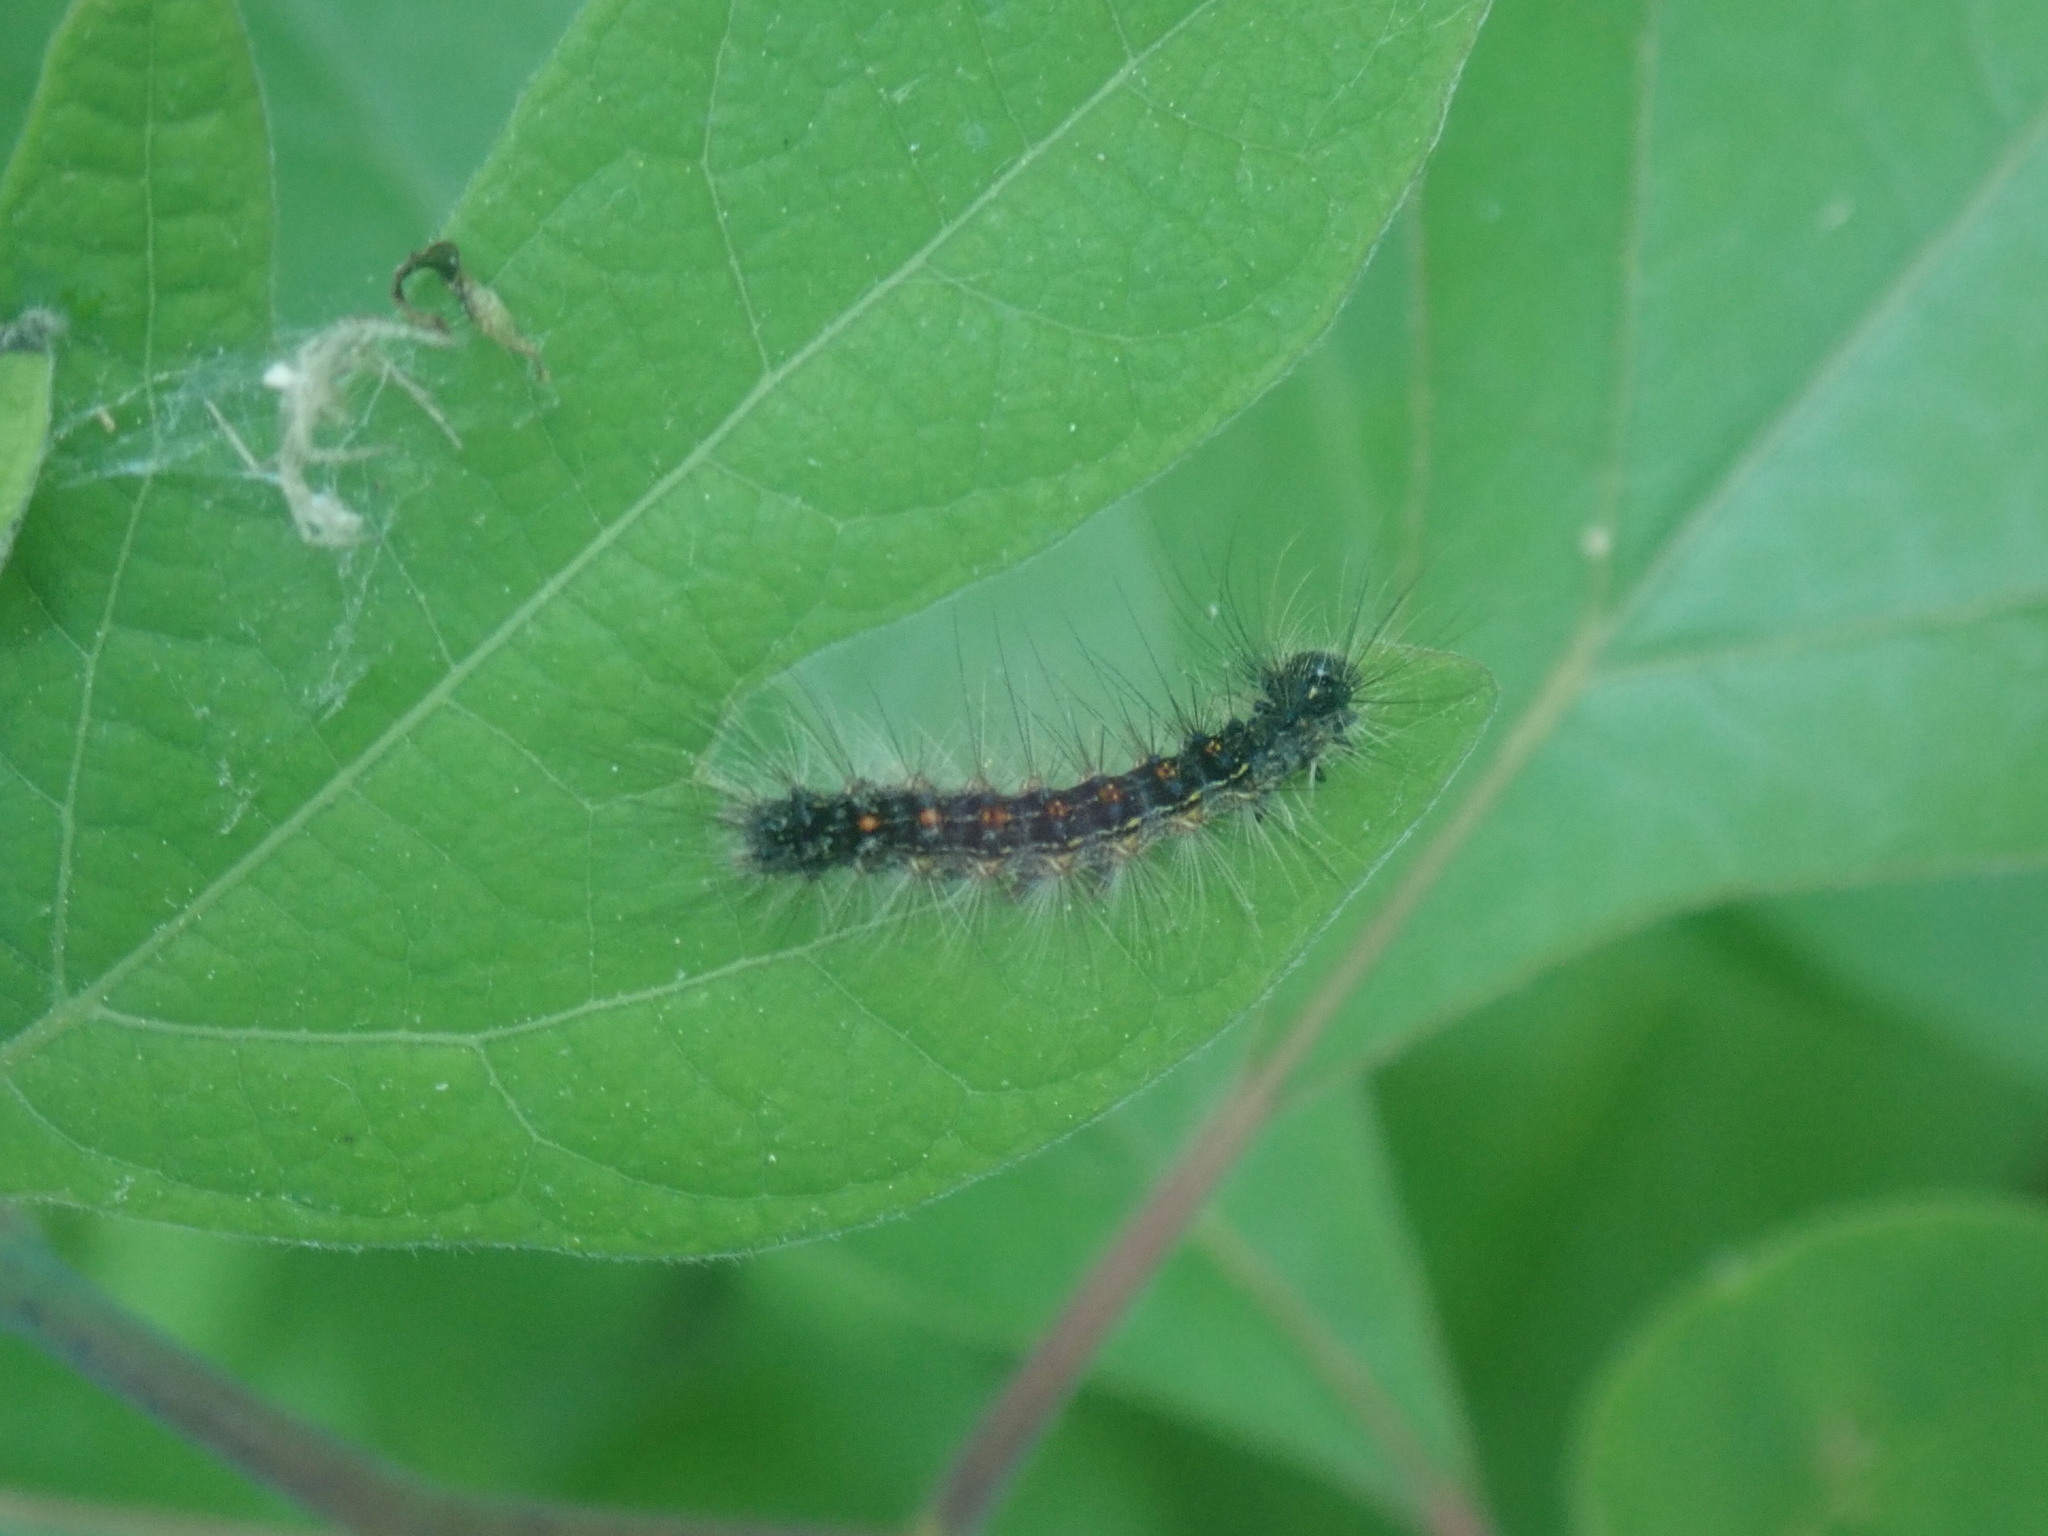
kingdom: Animalia
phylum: Arthropoda
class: Insecta
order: Lepidoptera
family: Erebidae
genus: Lymantria
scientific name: Lymantria dispar
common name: Gypsy moth
